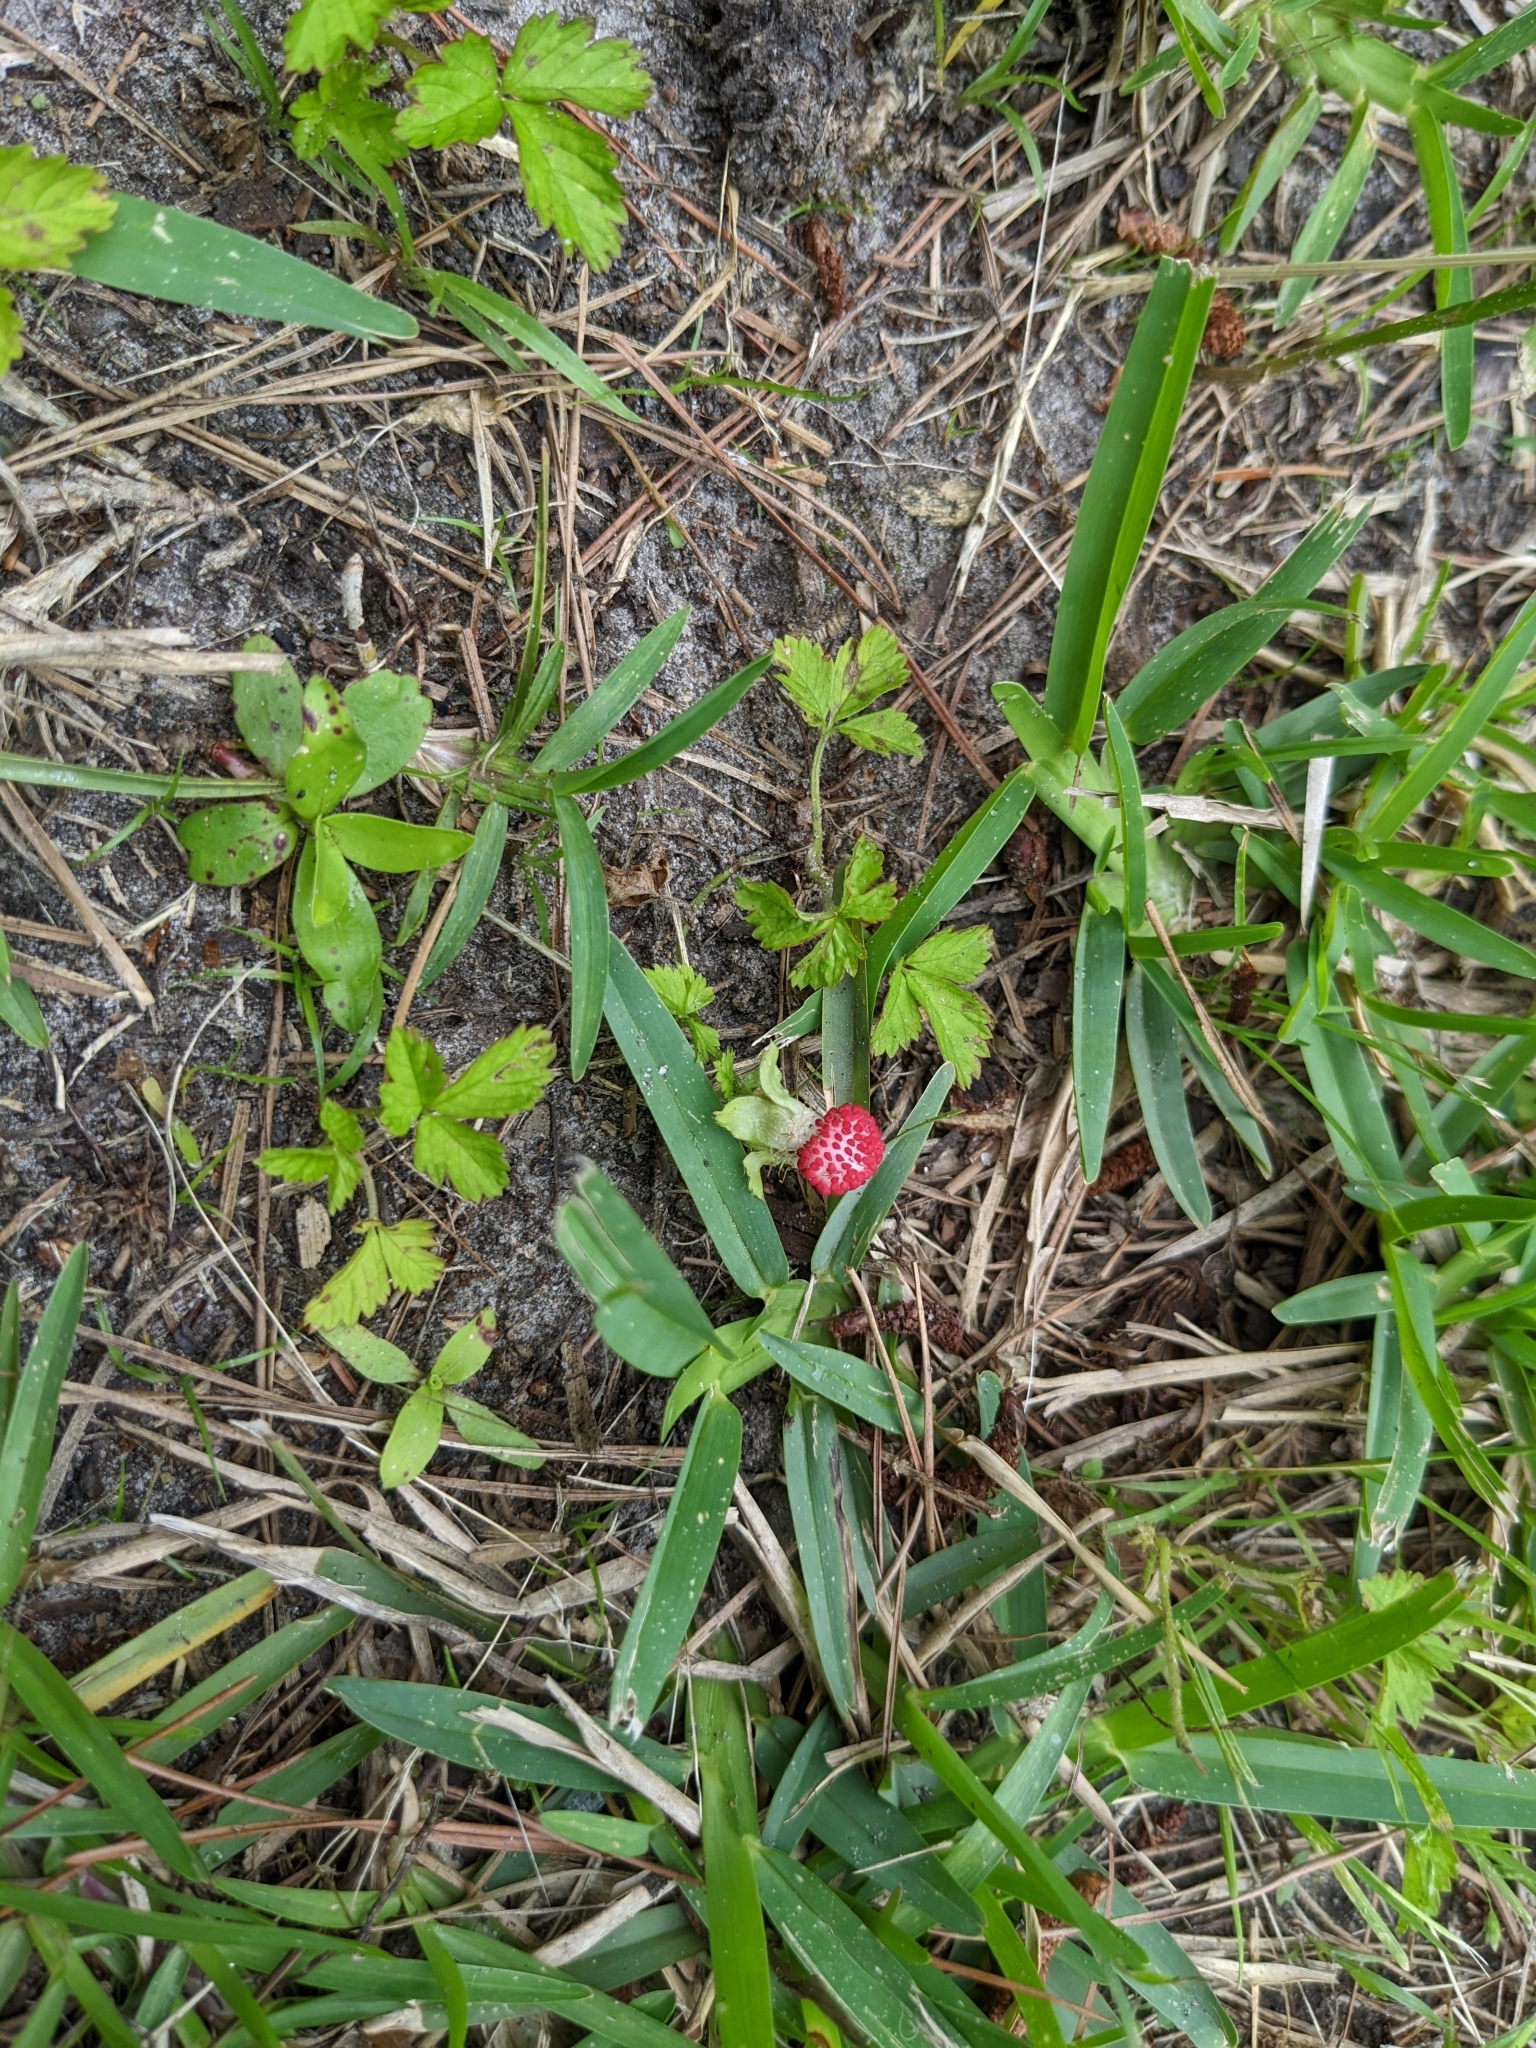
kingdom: Plantae
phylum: Tracheophyta
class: Magnoliopsida
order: Rosales
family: Rosaceae
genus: Potentilla
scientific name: Potentilla indica
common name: Yellow-flowered strawberry
